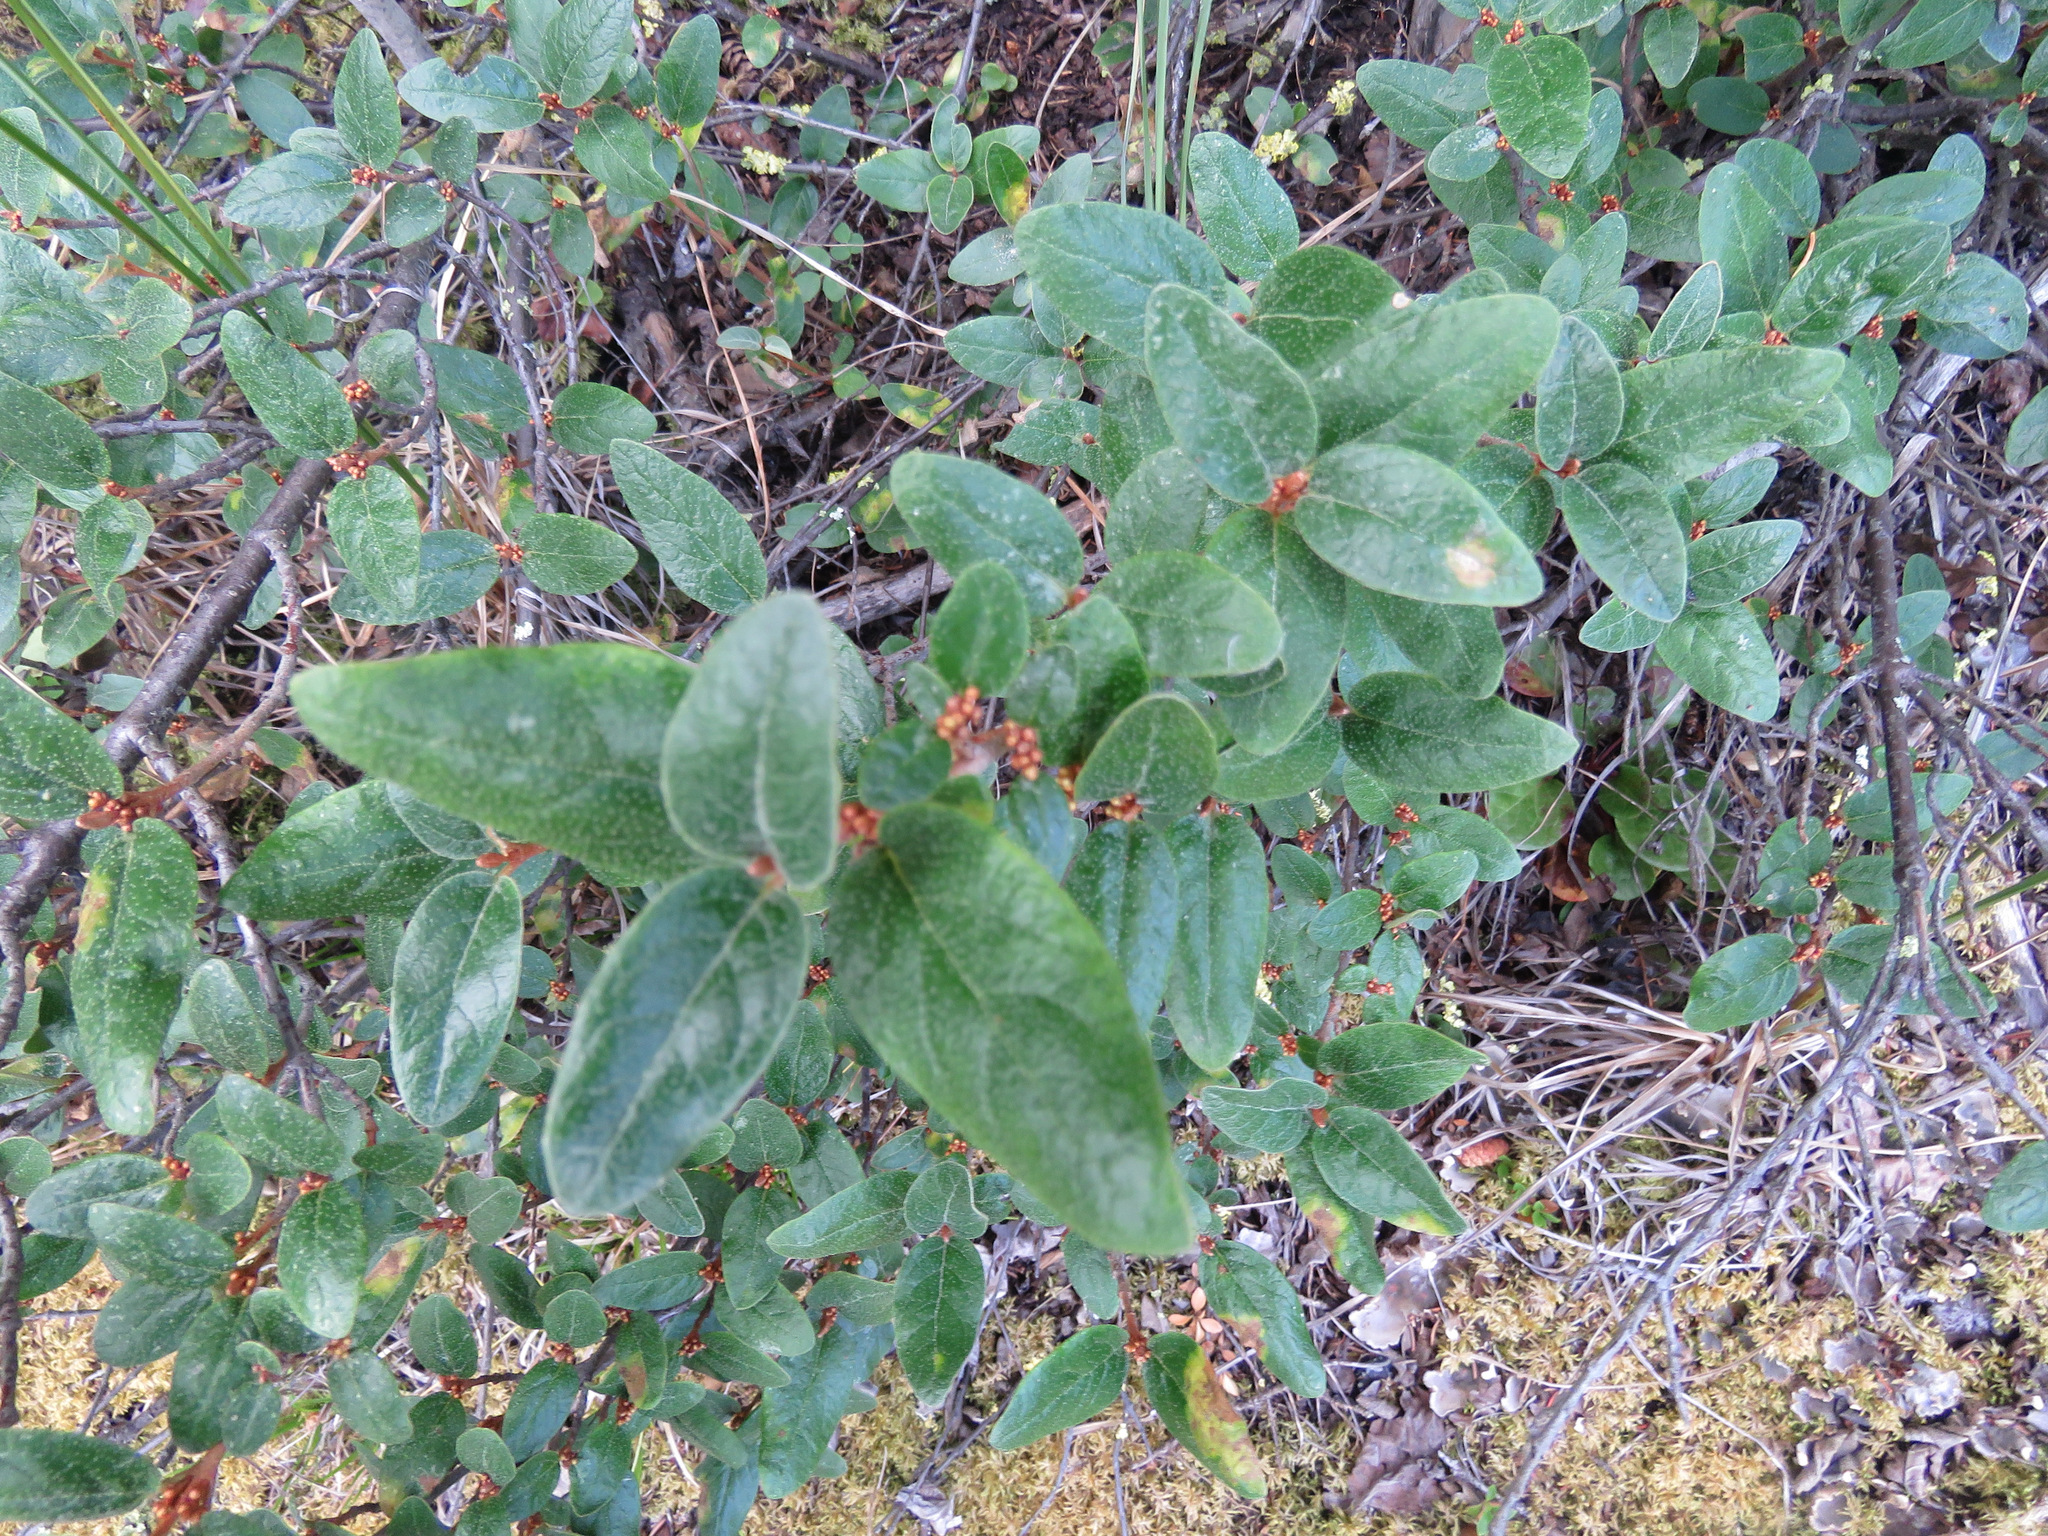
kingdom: Plantae
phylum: Tracheophyta
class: Magnoliopsida
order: Rosales
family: Elaeagnaceae
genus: Shepherdia
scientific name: Shepherdia canadensis
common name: Soapberry
